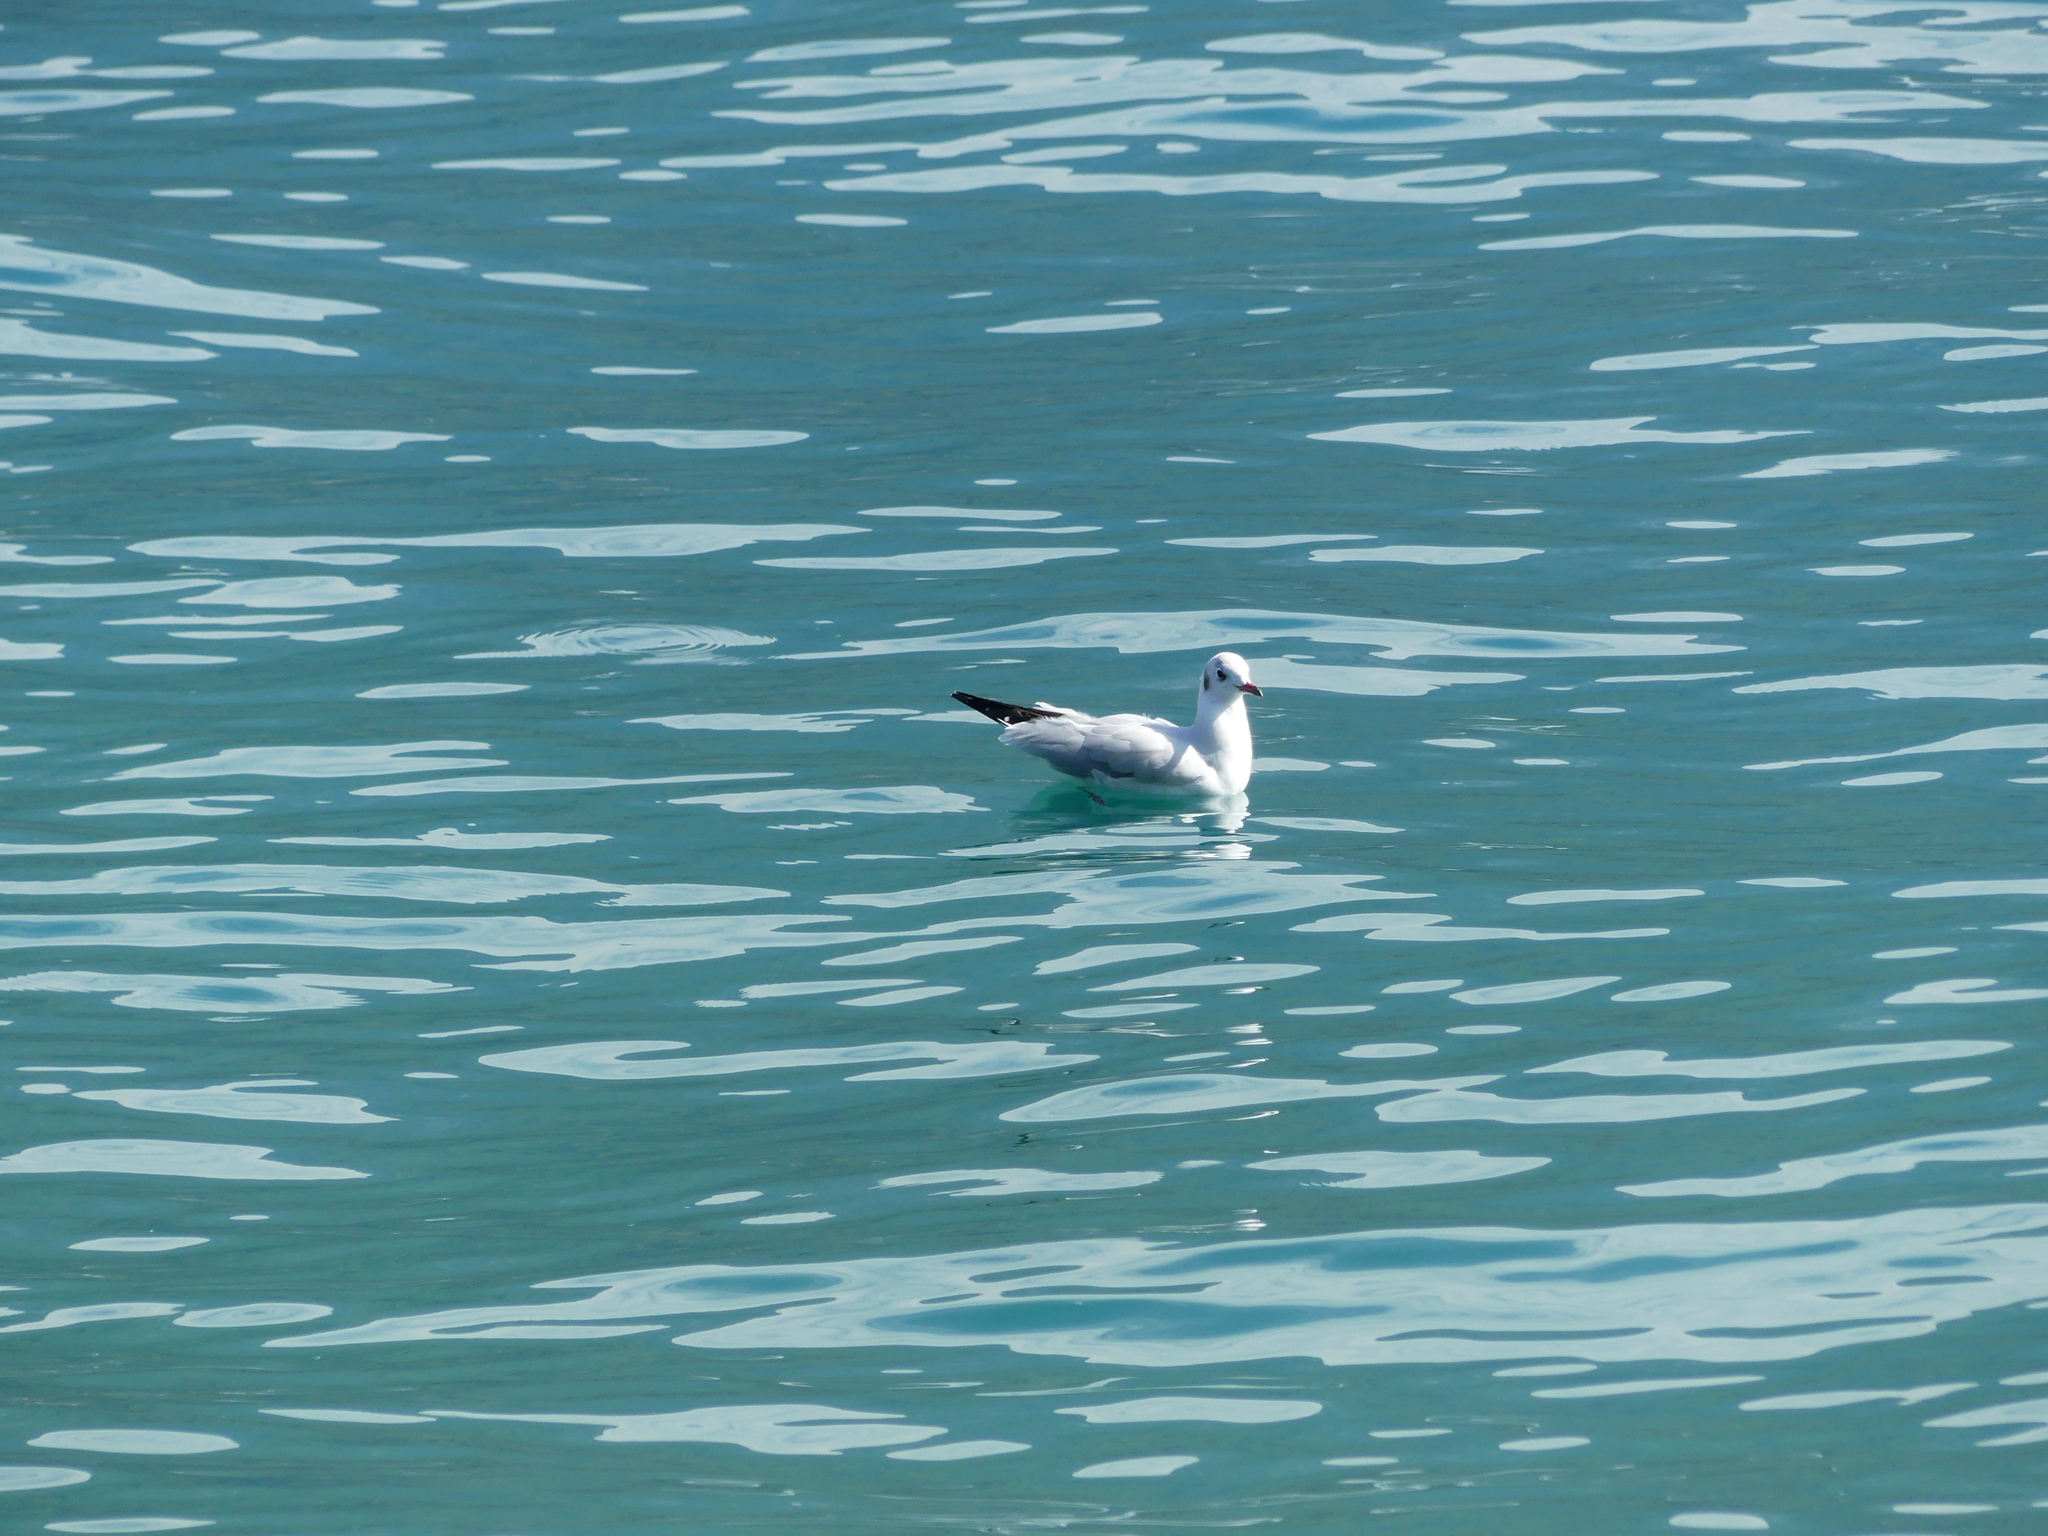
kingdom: Animalia
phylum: Chordata
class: Aves
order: Charadriiformes
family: Laridae
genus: Chroicocephalus
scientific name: Chroicocephalus ridibundus
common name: Black-headed gull
